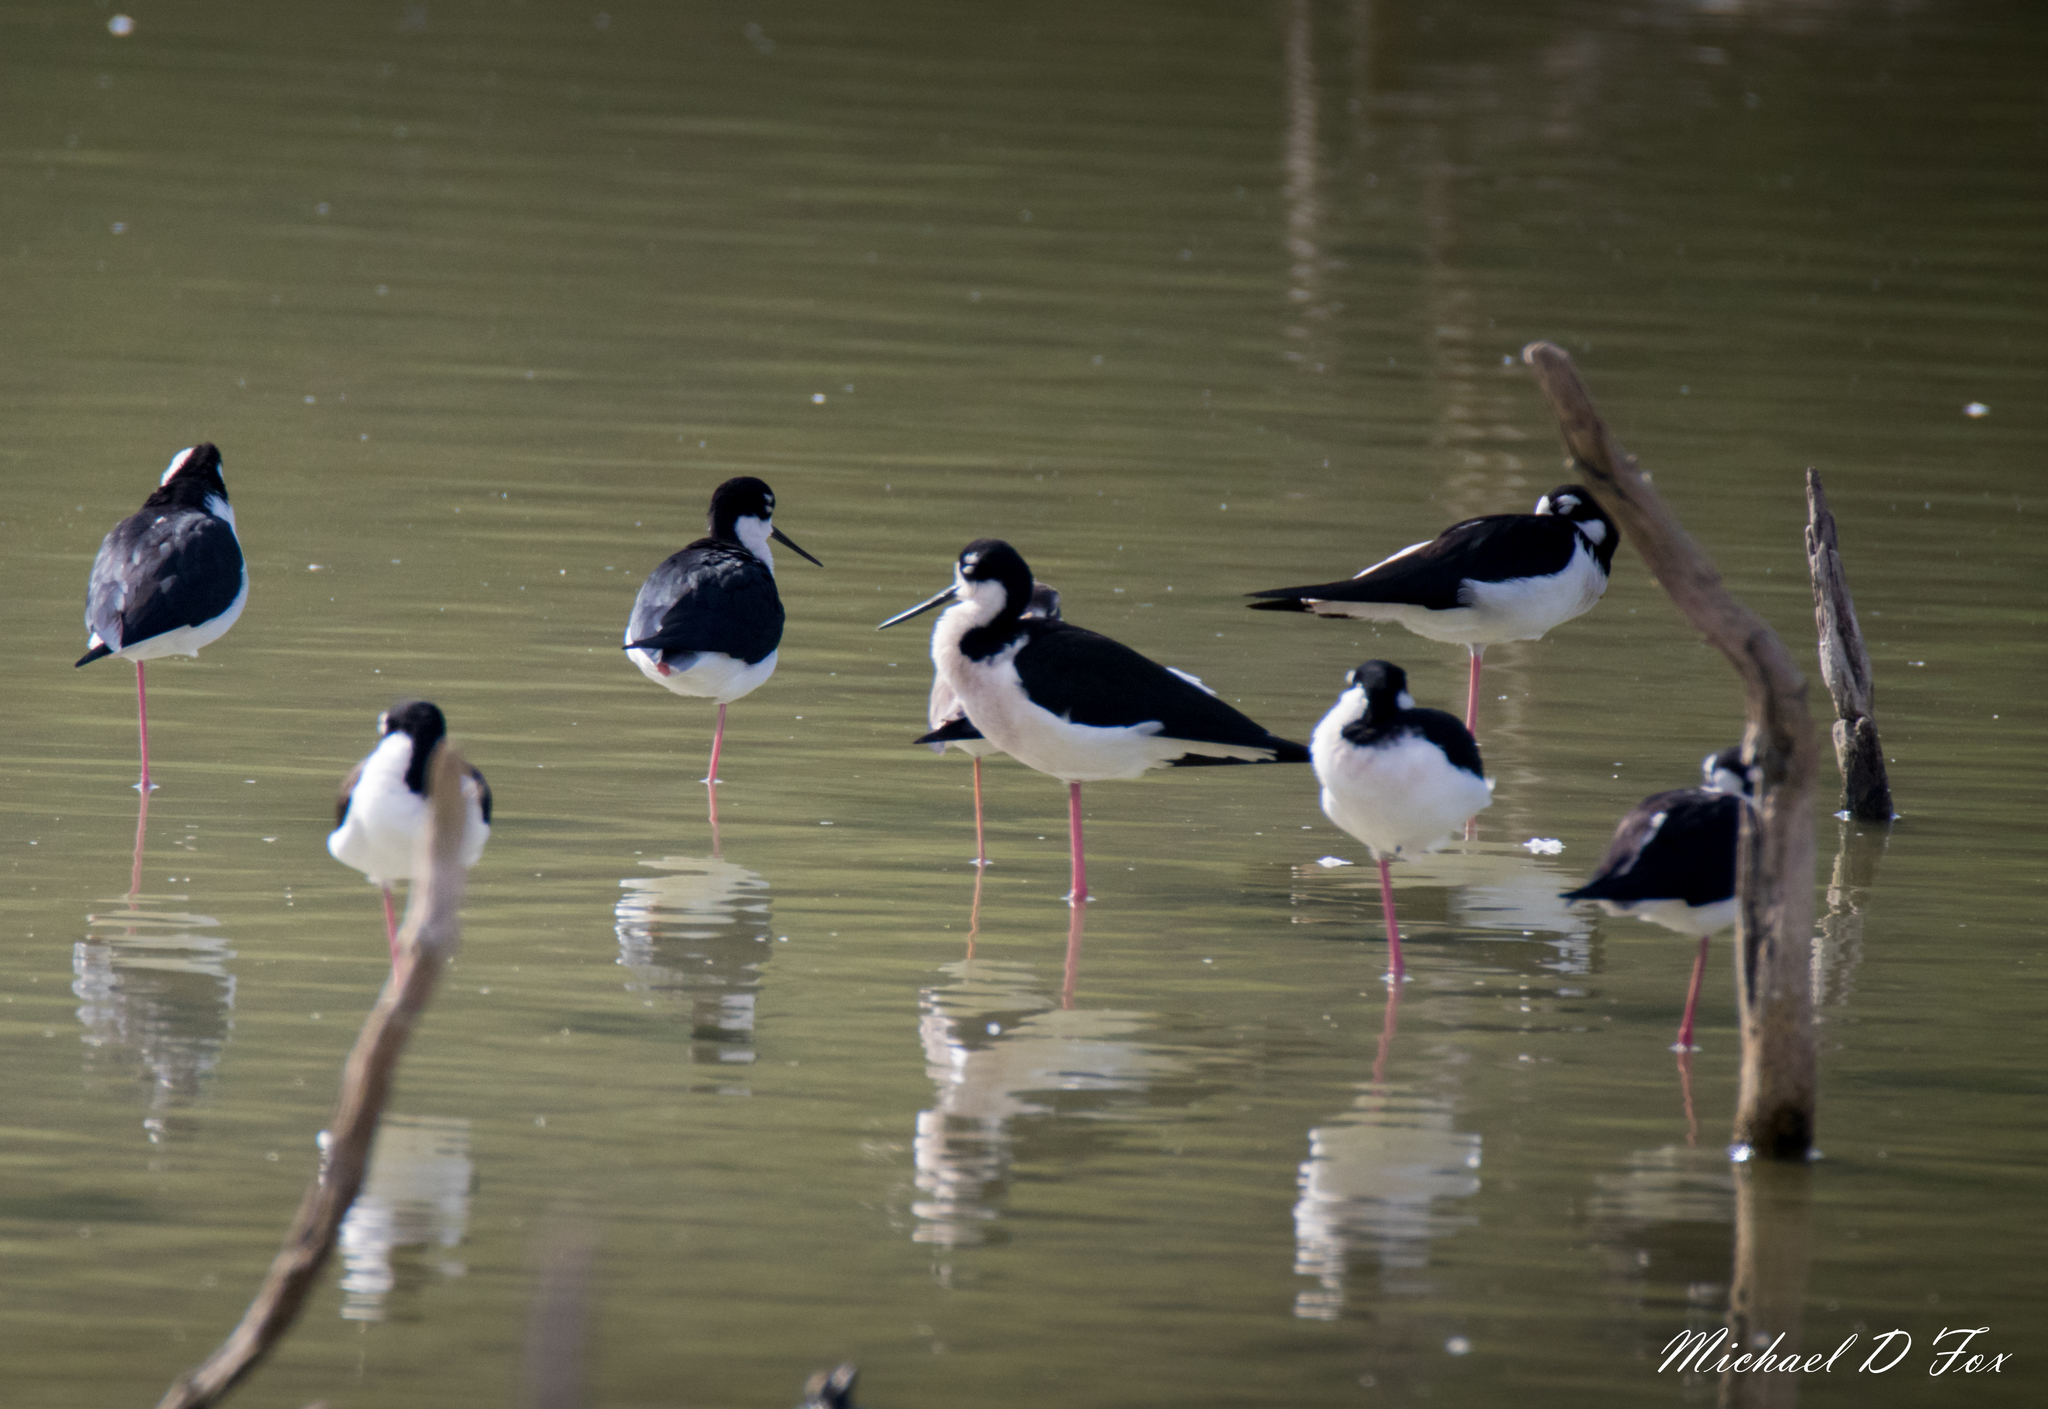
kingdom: Animalia
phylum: Chordata
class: Aves
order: Charadriiformes
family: Recurvirostridae
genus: Himantopus
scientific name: Himantopus mexicanus
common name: Black-necked stilt
